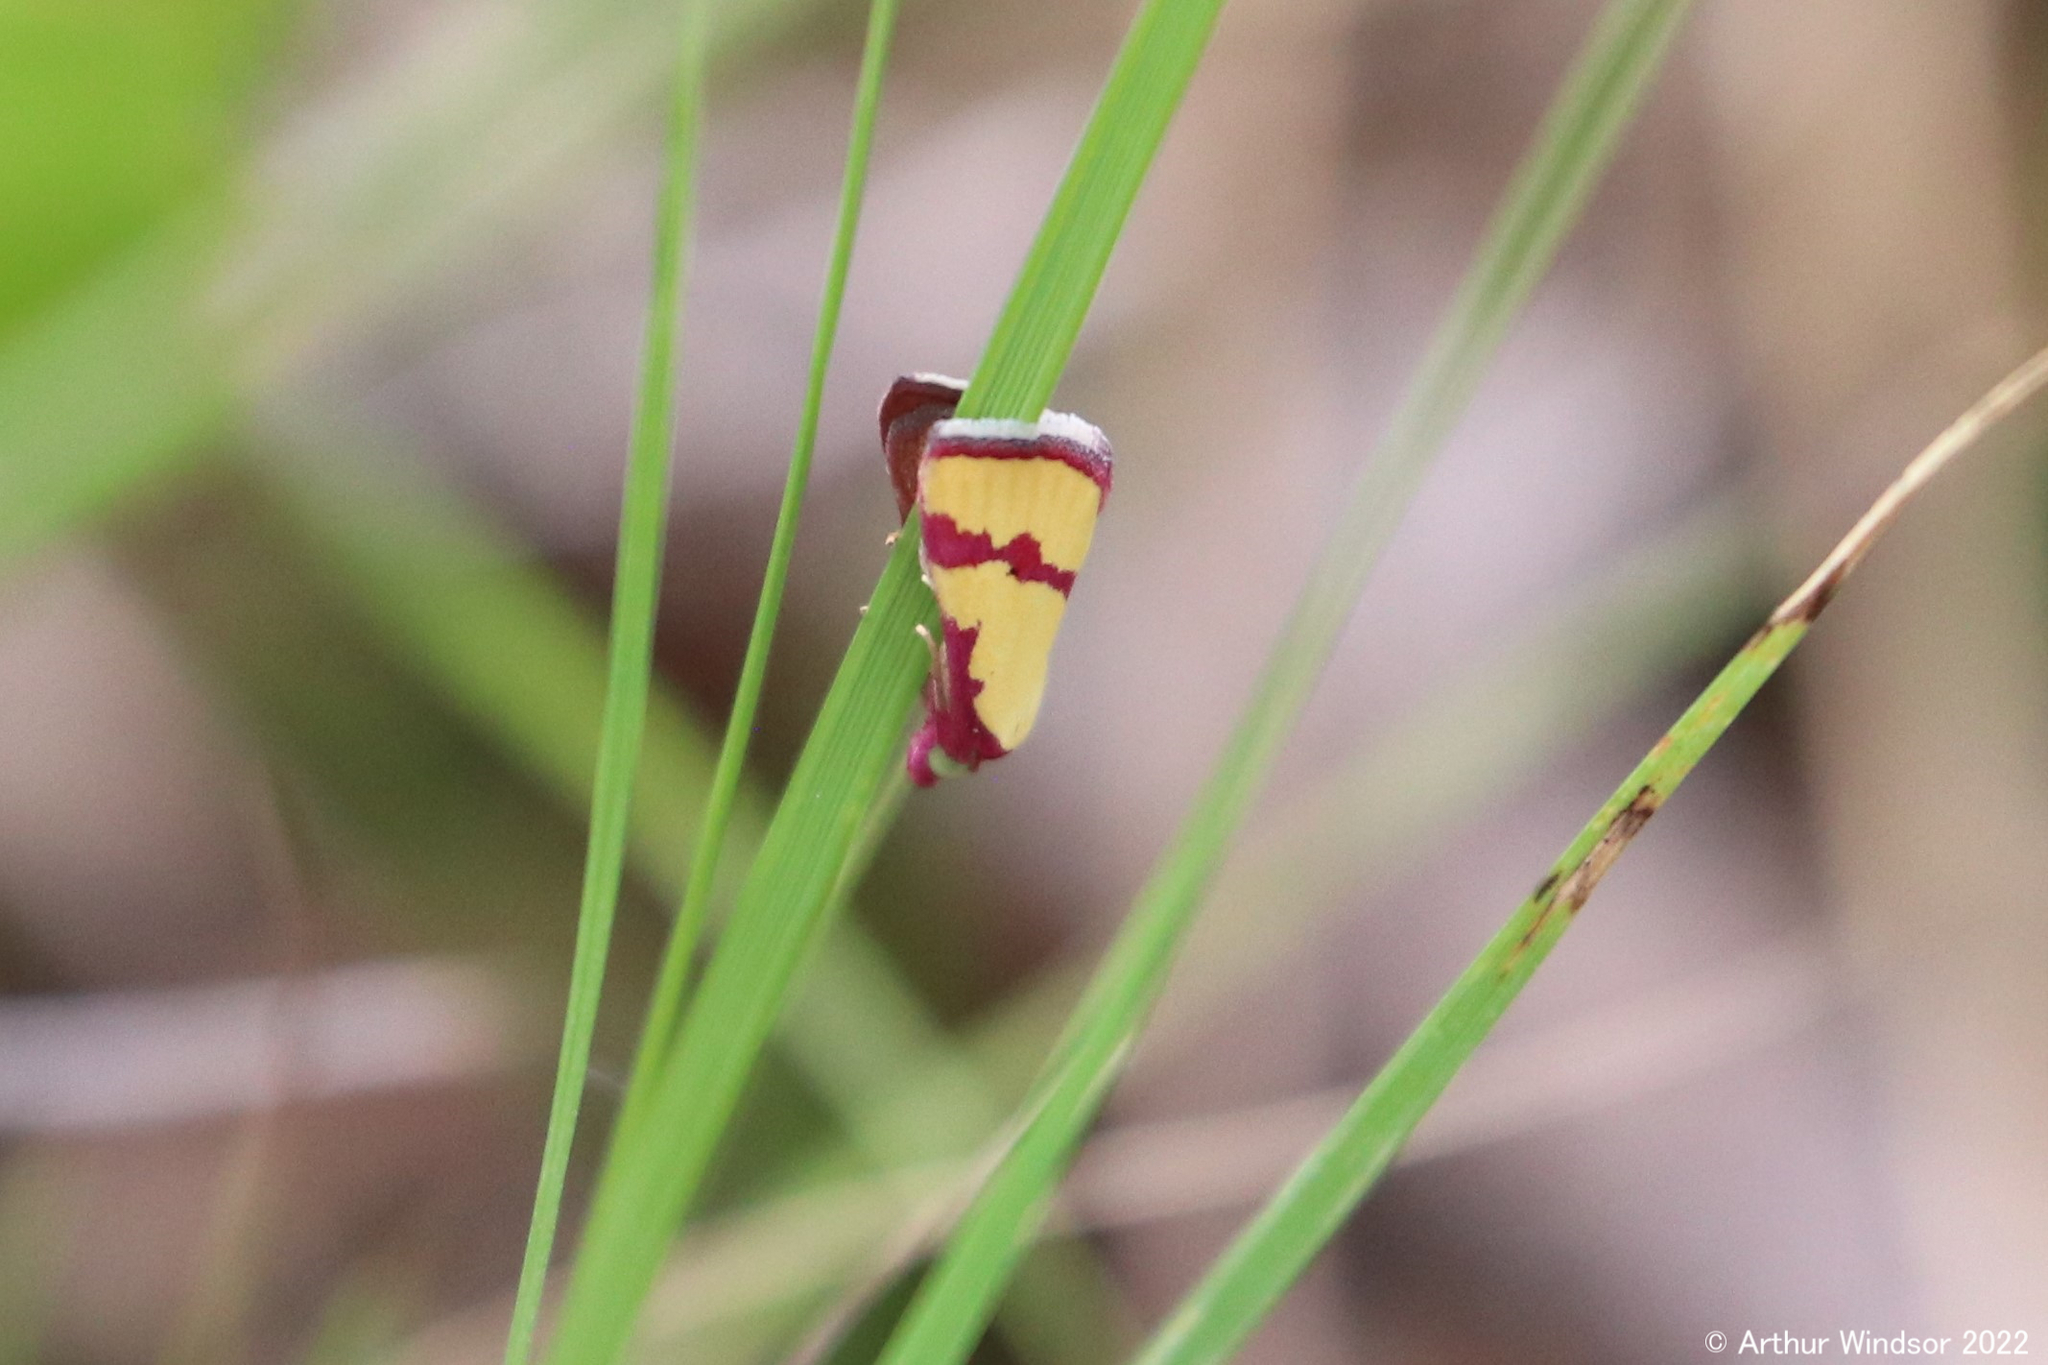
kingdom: Animalia
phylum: Arthropoda
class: Insecta
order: Lepidoptera
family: Erebidae
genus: Phytometra
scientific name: Phytometra ernestinana
